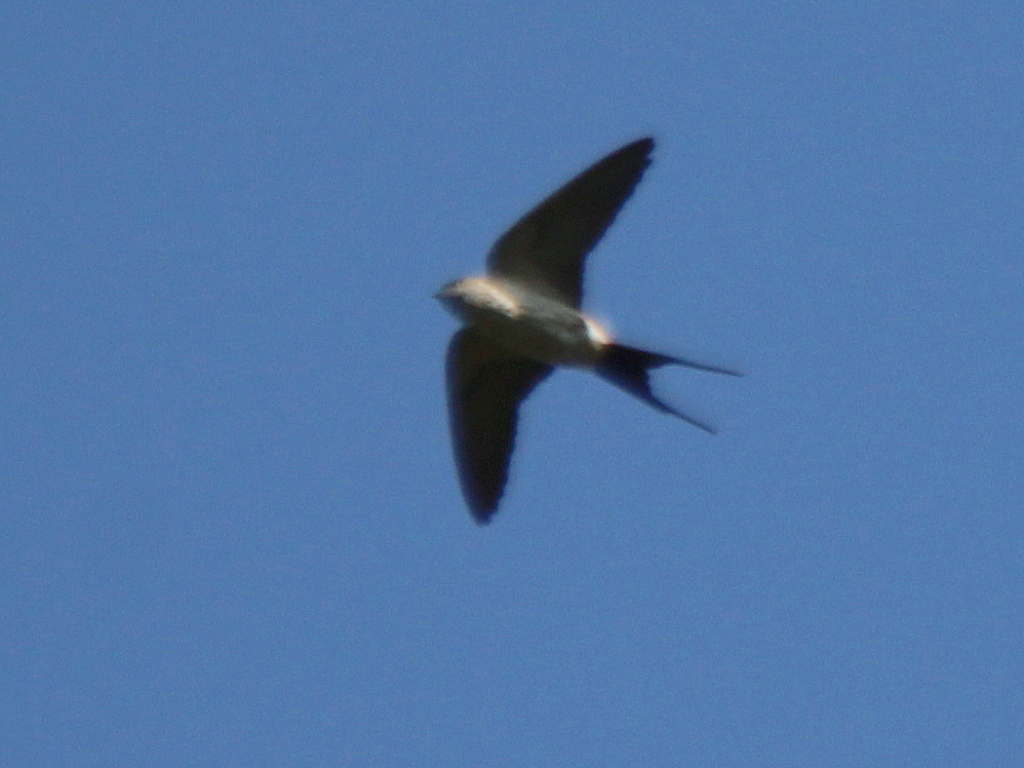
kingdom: Animalia
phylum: Chordata
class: Aves
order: Passeriformes
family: Hirundinidae
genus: Cecropis
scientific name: Cecropis daurica
